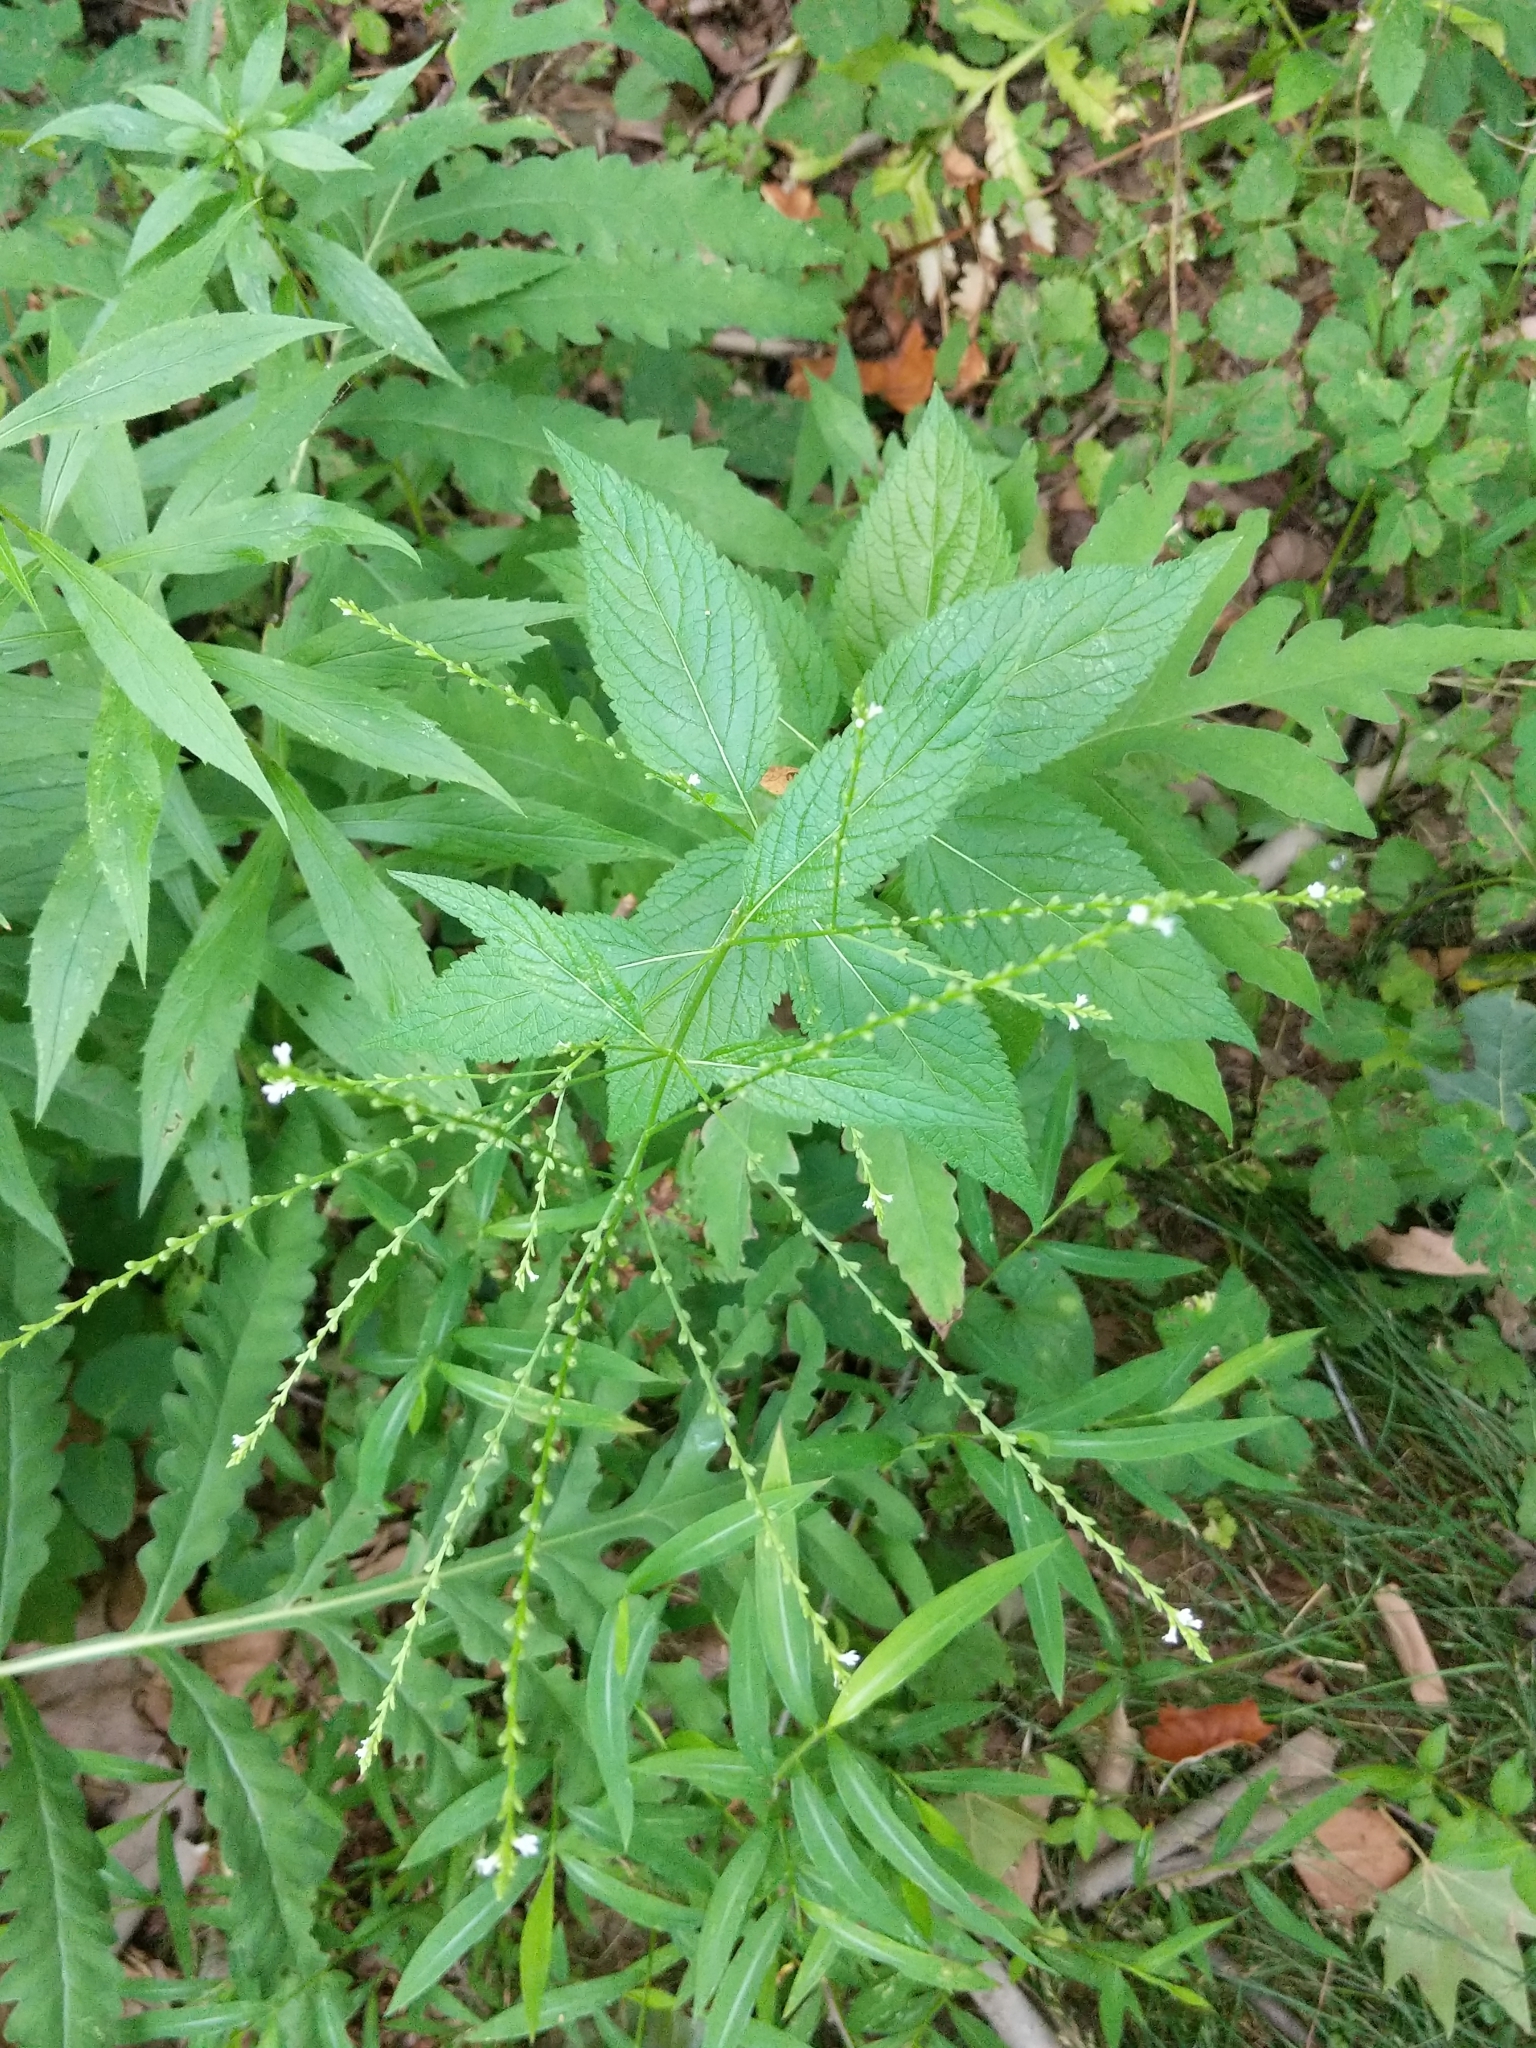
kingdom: Plantae
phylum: Tracheophyta
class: Magnoliopsida
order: Lamiales
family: Verbenaceae
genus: Verbena
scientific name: Verbena urticifolia
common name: Nettle-leaved vervain
